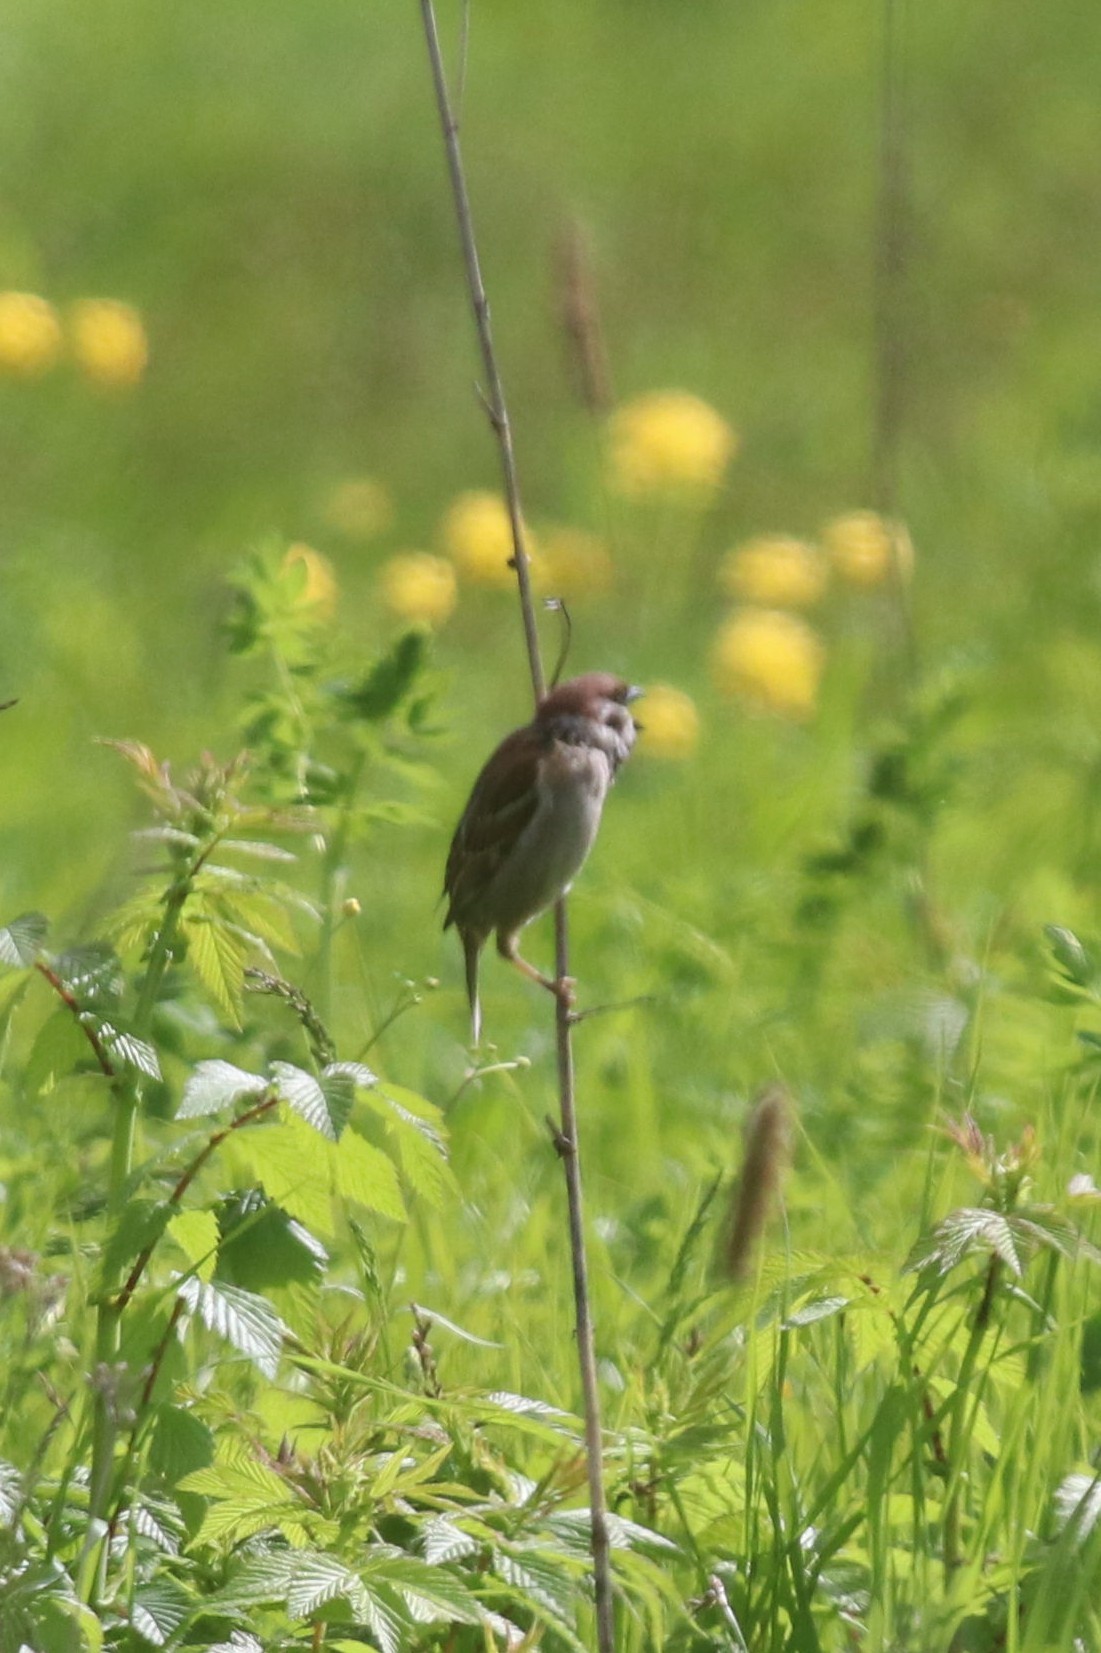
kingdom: Animalia
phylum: Chordata
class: Aves
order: Passeriformes
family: Passeridae
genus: Passer
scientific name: Passer montanus
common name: Eurasian tree sparrow
